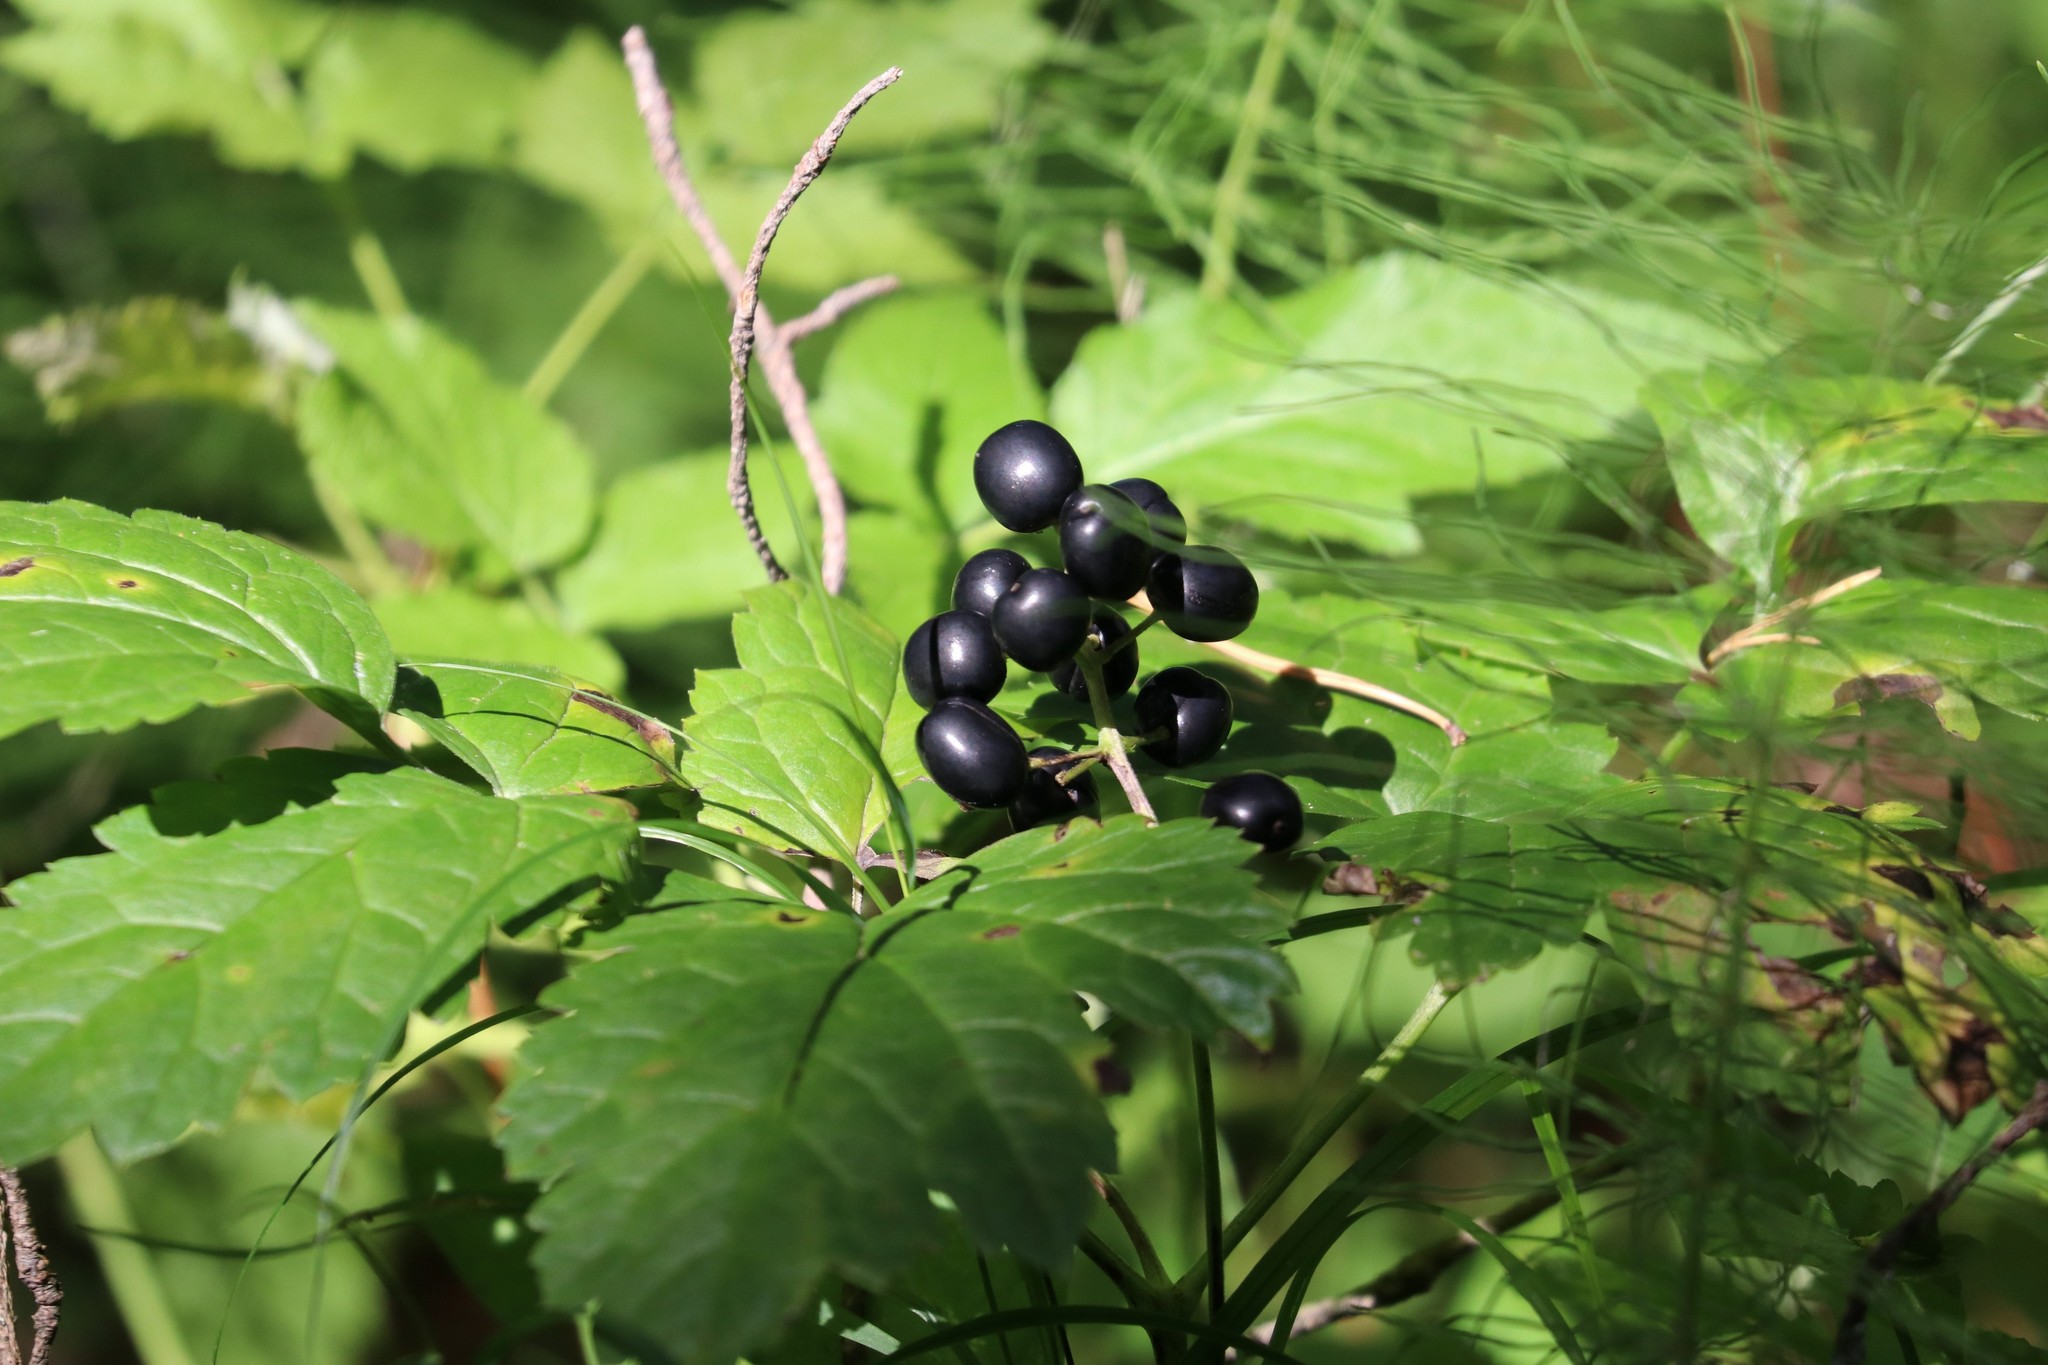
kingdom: Plantae
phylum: Tracheophyta
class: Magnoliopsida
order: Ranunculales
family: Ranunculaceae
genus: Actaea
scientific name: Actaea spicata
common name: Baneberry
